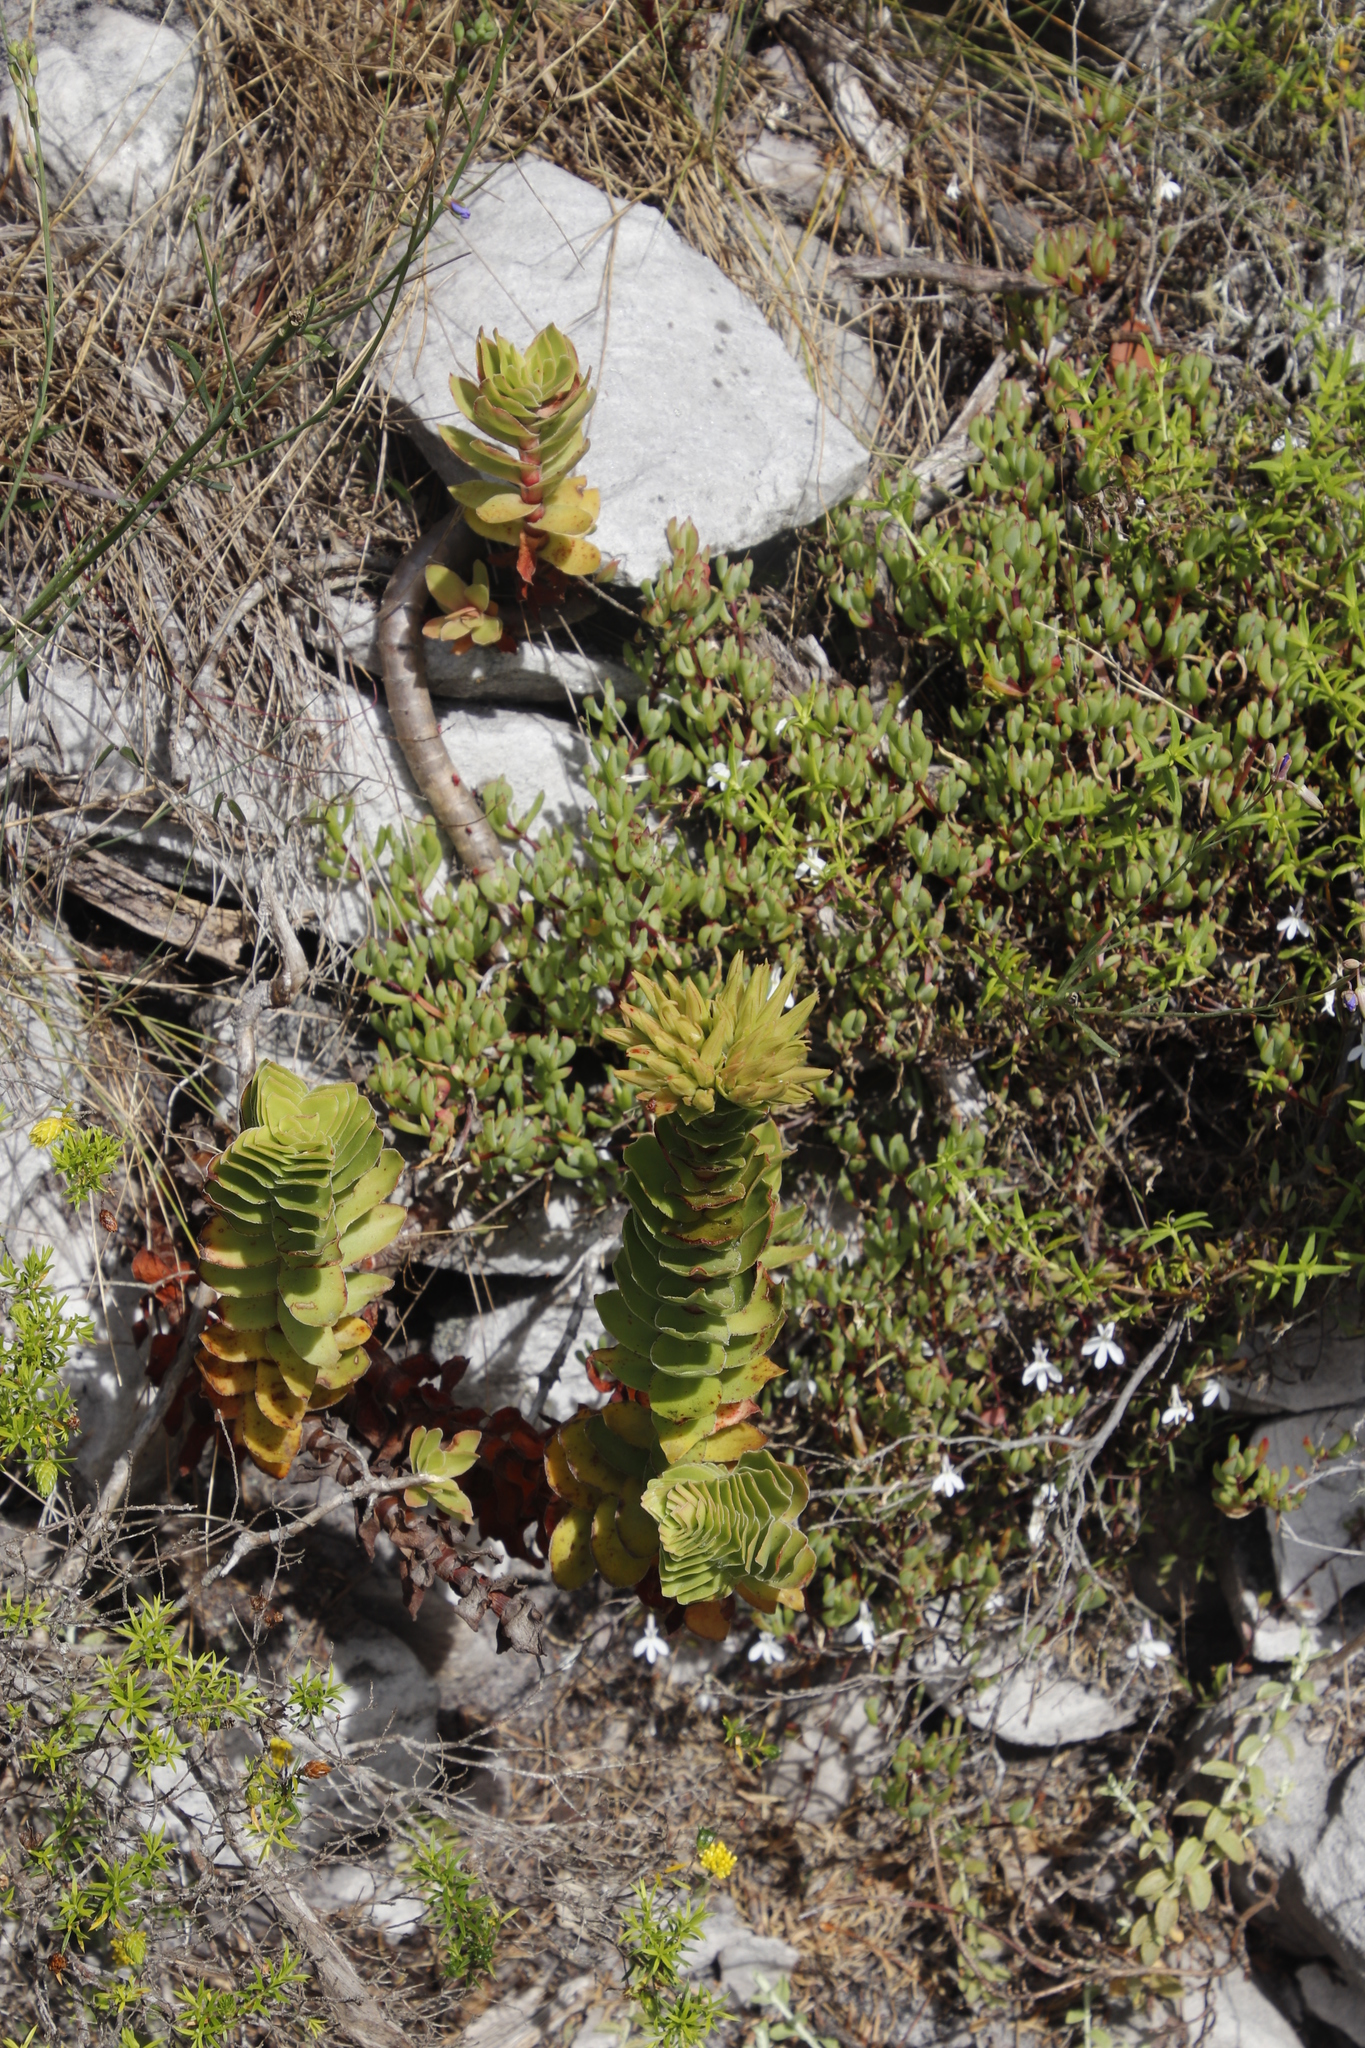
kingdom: Plantae
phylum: Tracheophyta
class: Magnoliopsida
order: Saxifragales
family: Crassulaceae
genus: Crassula
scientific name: Crassula coccinea
